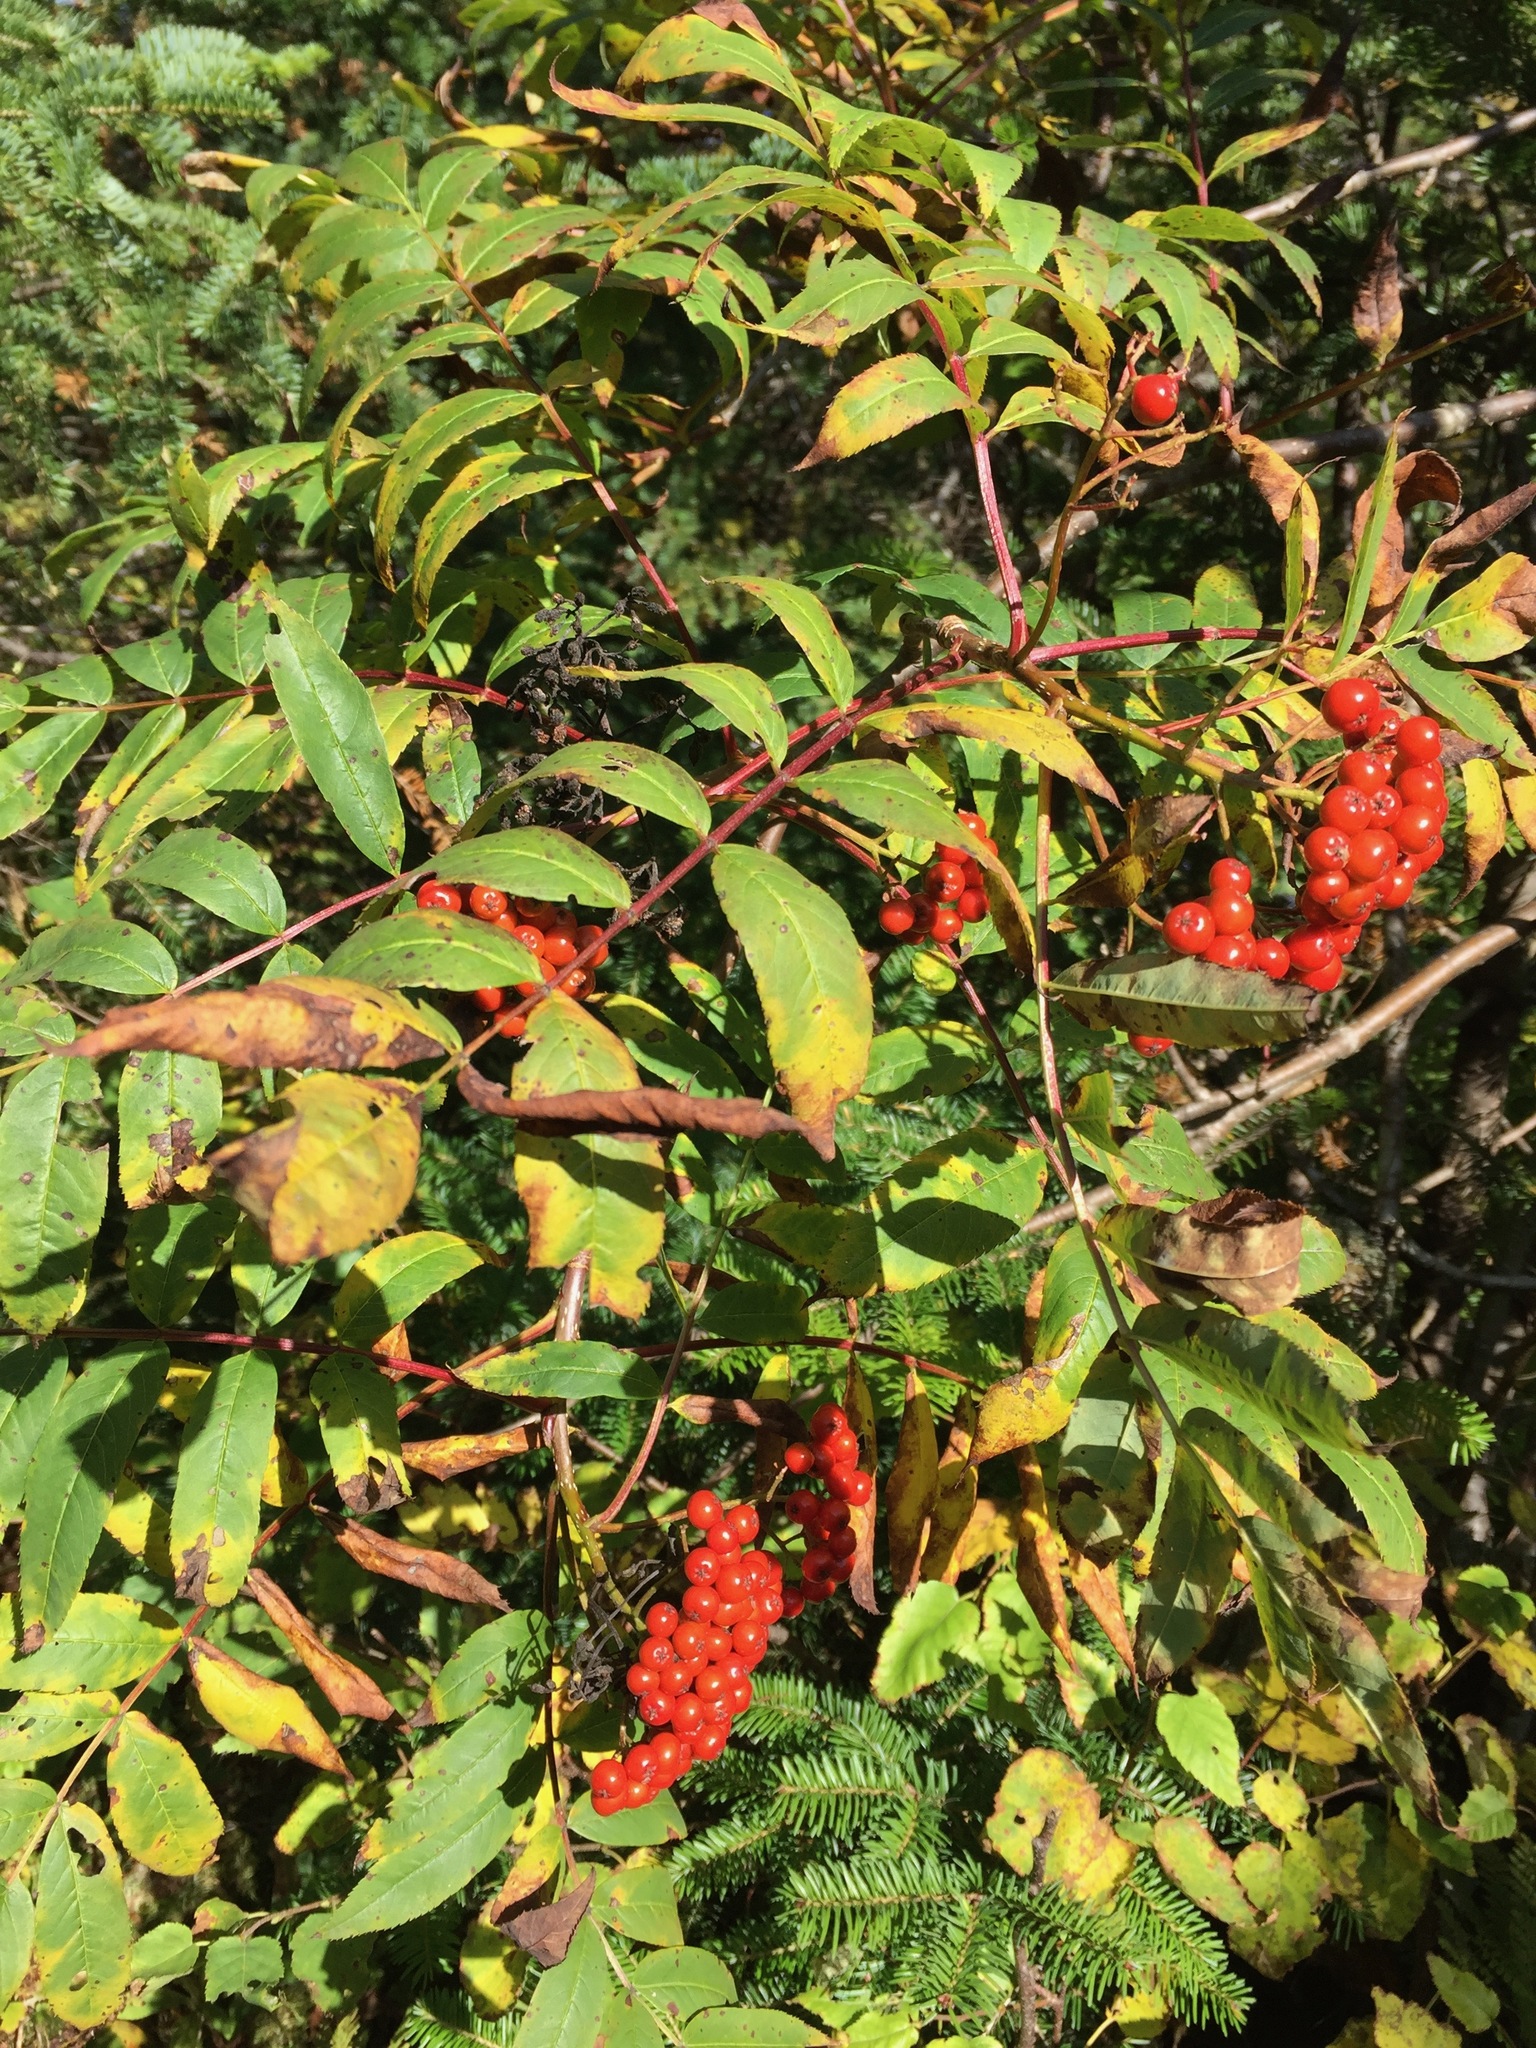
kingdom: Plantae
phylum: Tracheophyta
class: Magnoliopsida
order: Rosales
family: Rosaceae
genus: Sorbus
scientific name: Sorbus americana
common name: American mountain-ash
